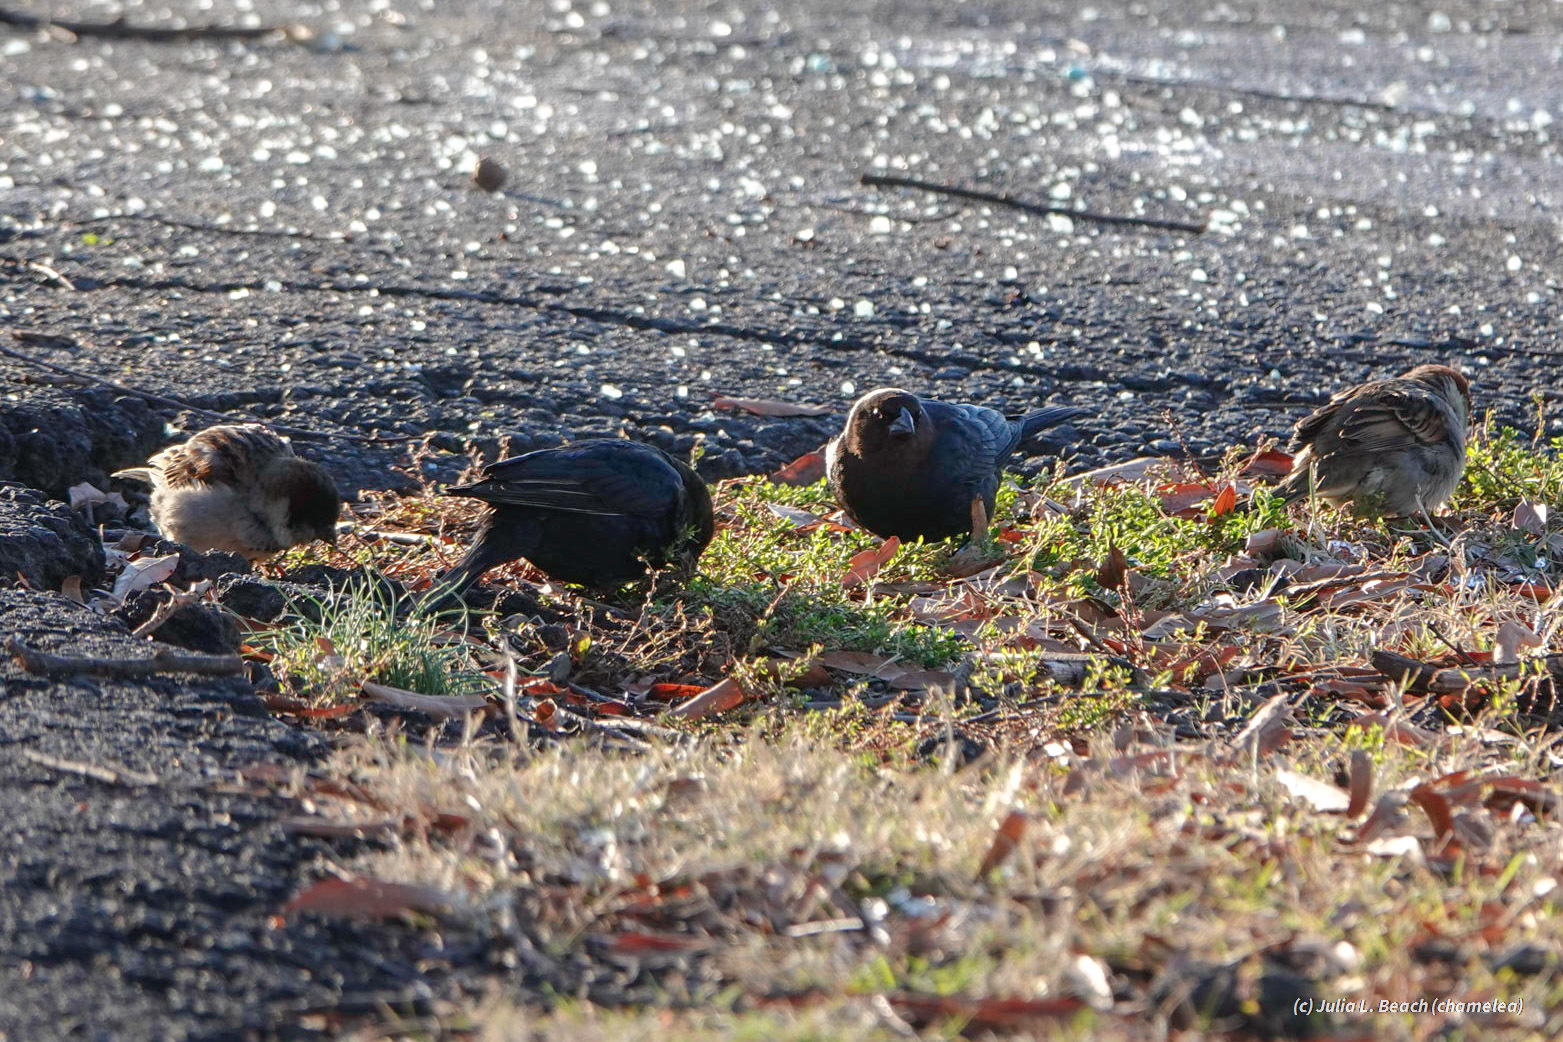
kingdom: Animalia
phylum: Chordata
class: Aves
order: Passeriformes
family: Icteridae
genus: Molothrus
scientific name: Molothrus ater
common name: Brown-headed cowbird
